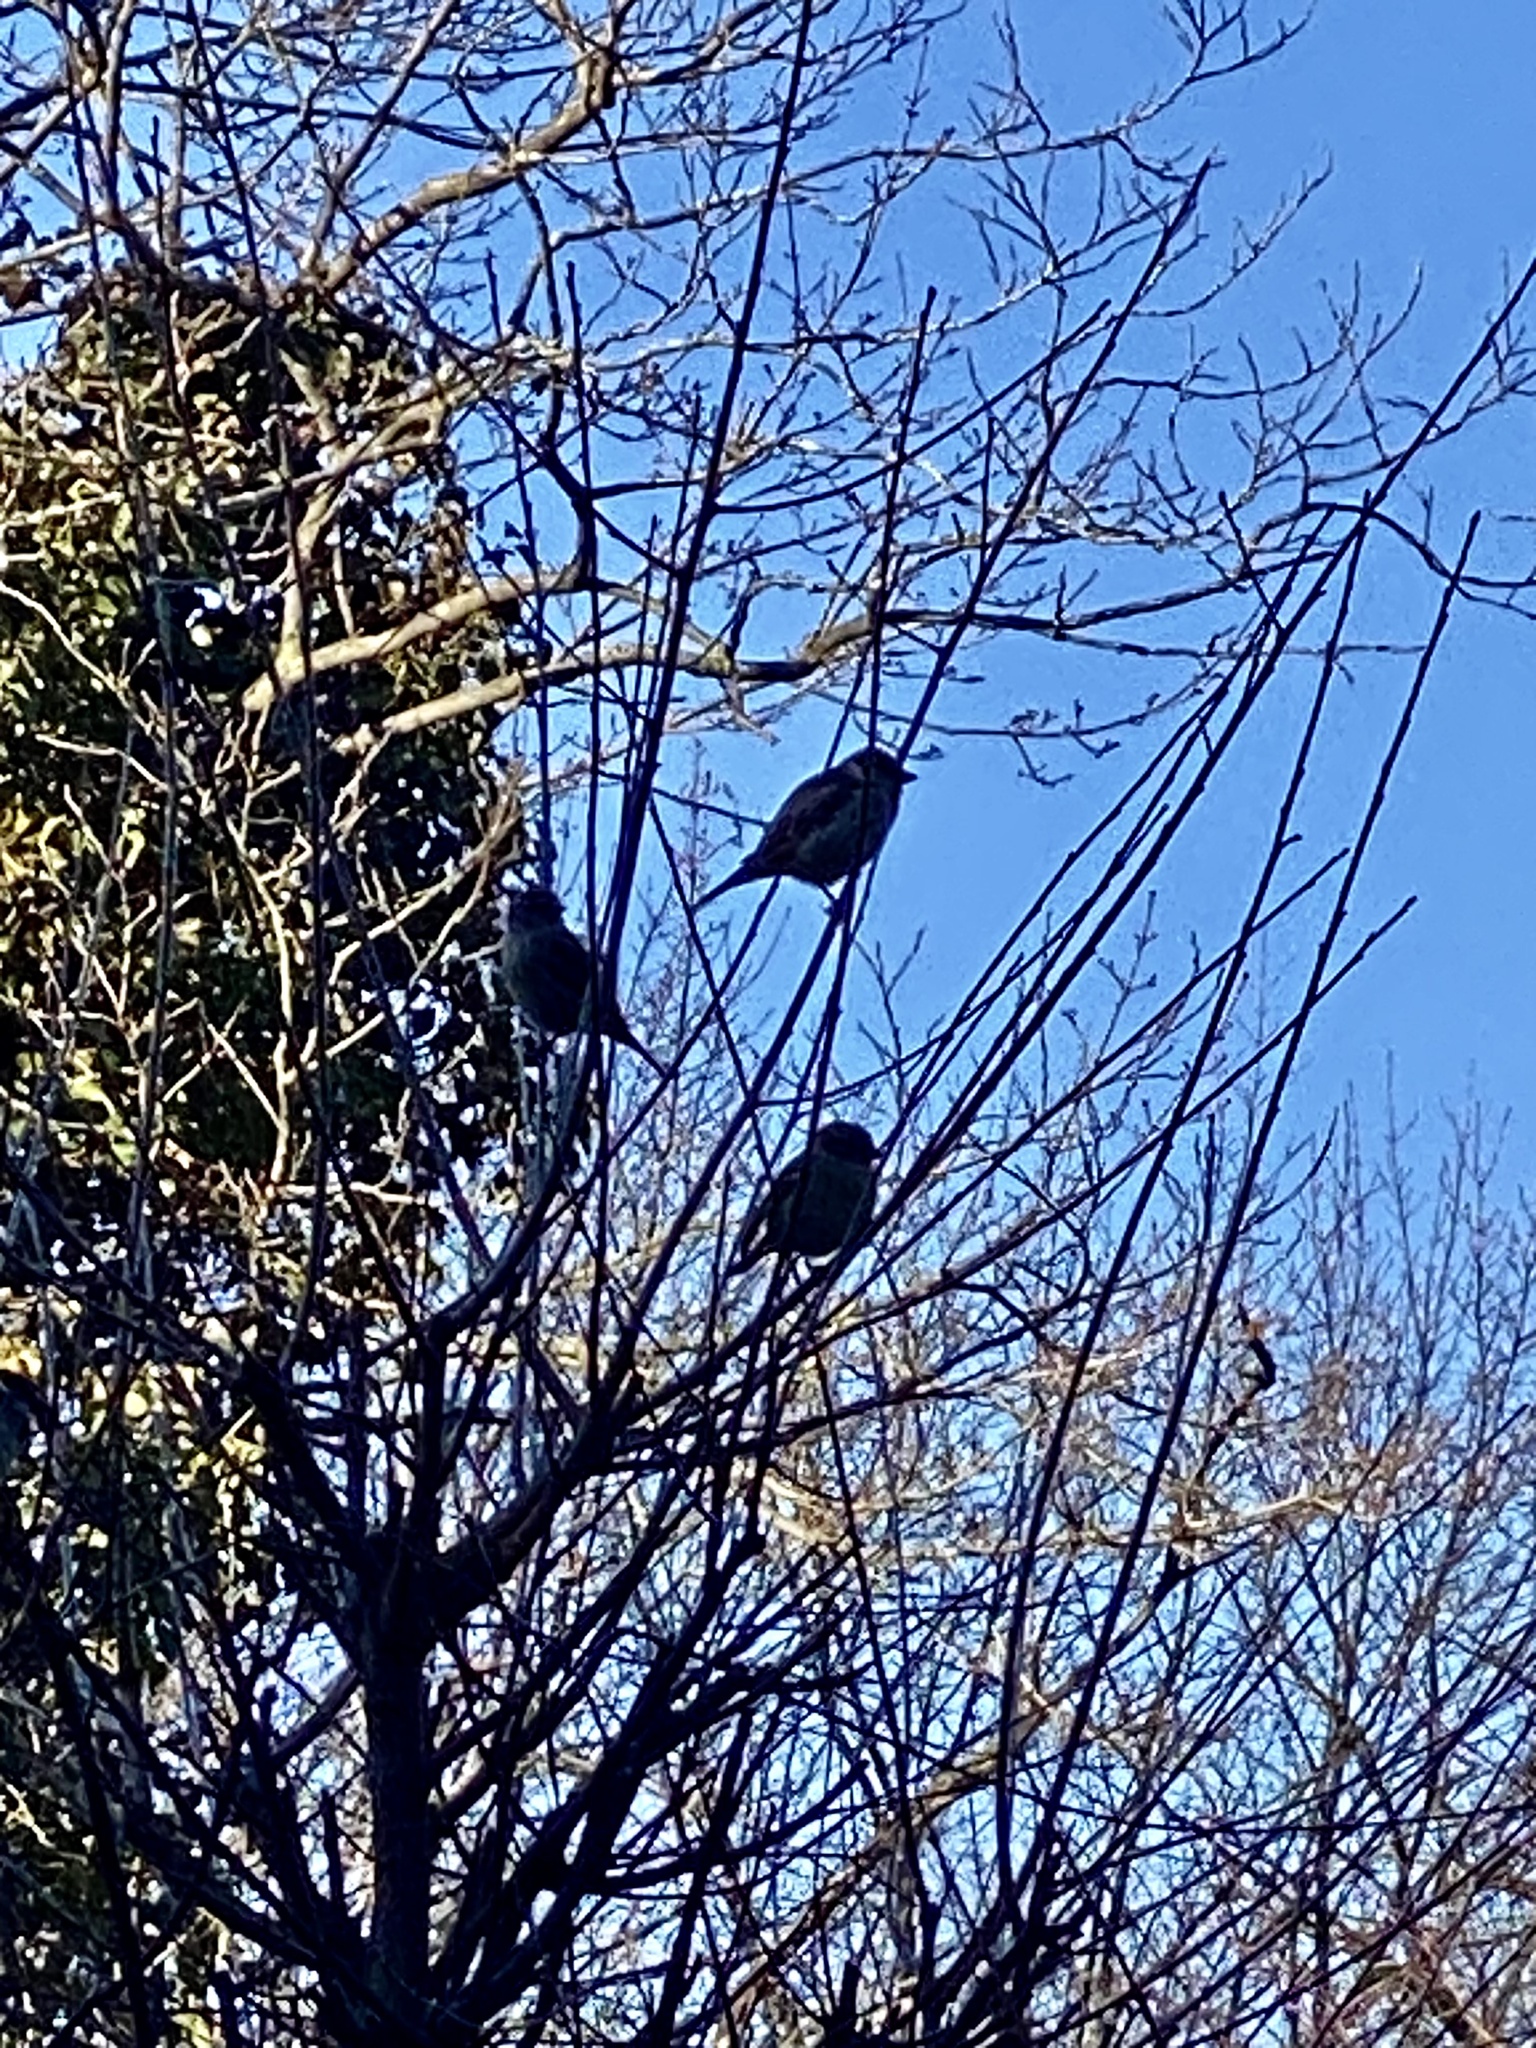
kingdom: Animalia
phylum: Chordata
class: Aves
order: Passeriformes
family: Passeridae
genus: Passer
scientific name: Passer domesticus
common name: House sparrow
